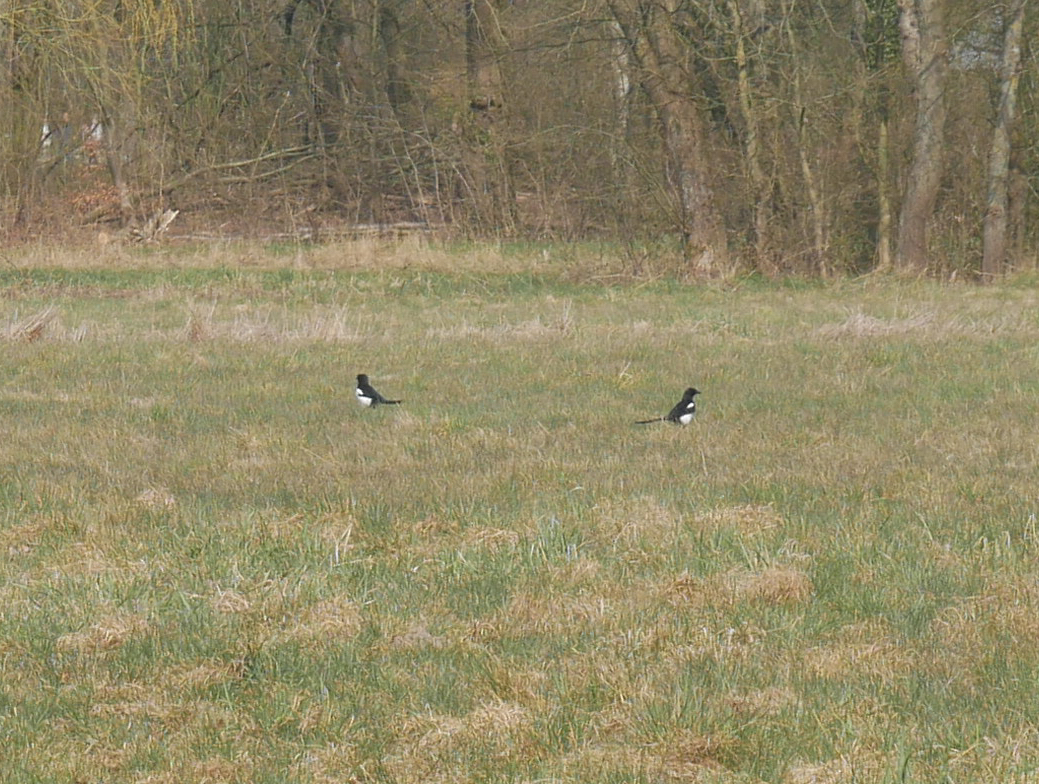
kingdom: Animalia
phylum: Chordata
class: Aves
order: Passeriformes
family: Corvidae
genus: Pica
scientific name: Pica pica
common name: Eurasian magpie
